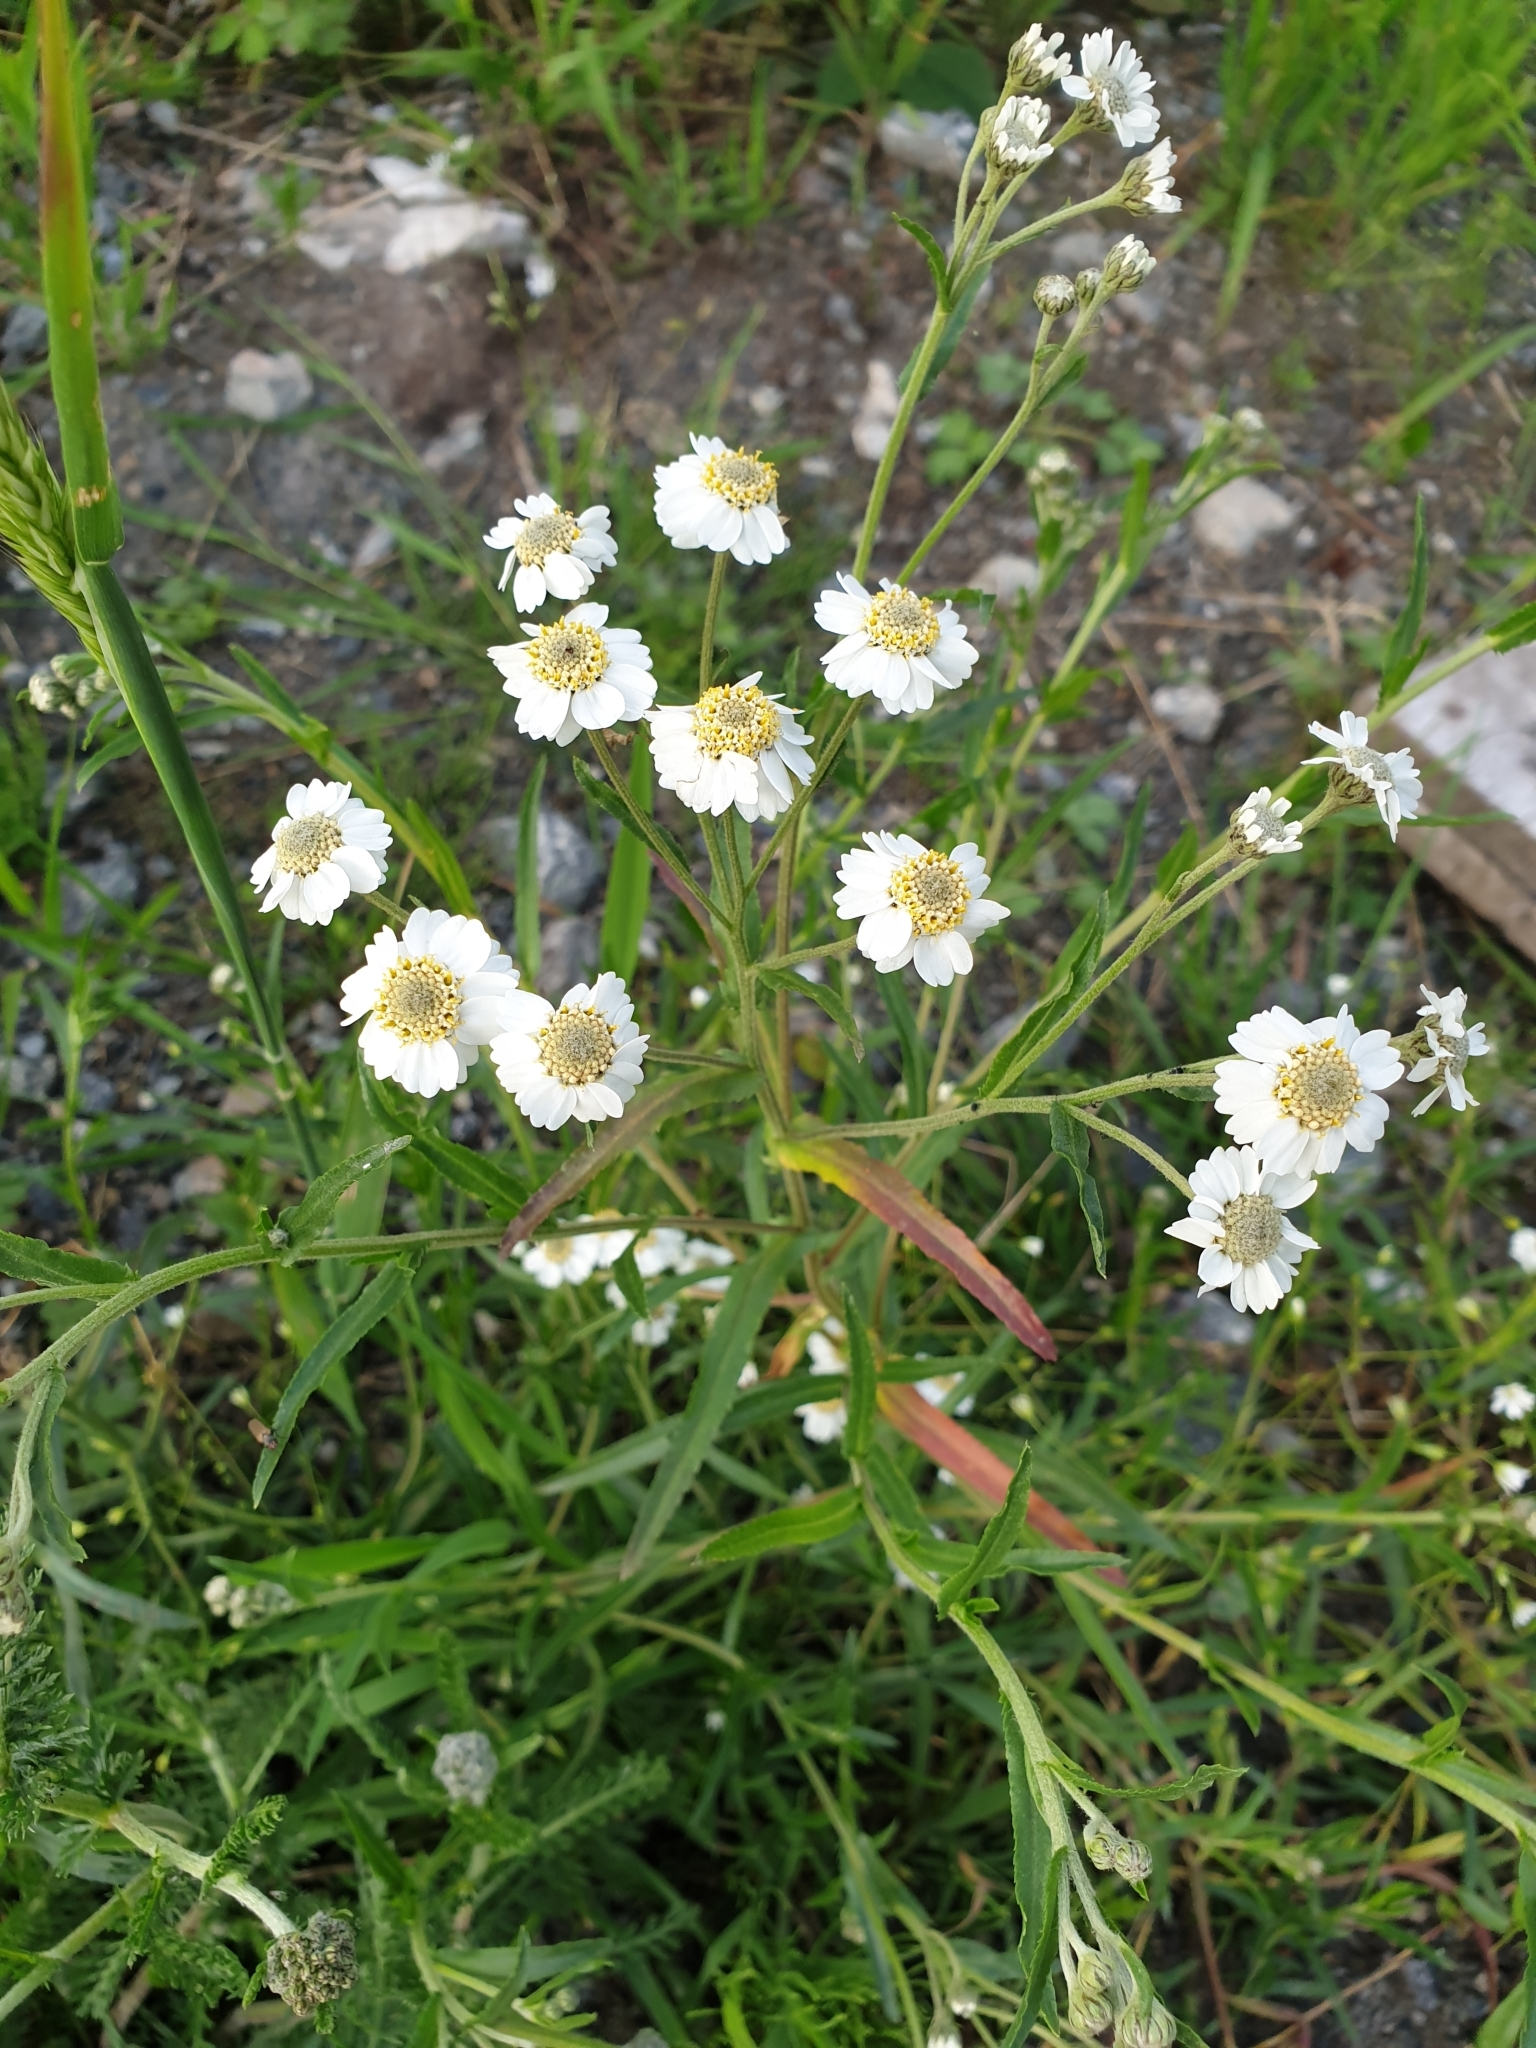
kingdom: Plantae
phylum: Tracheophyta
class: Magnoliopsida
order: Asterales
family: Asteraceae
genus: Achillea
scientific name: Achillea ptarmica
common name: Sneezeweed
